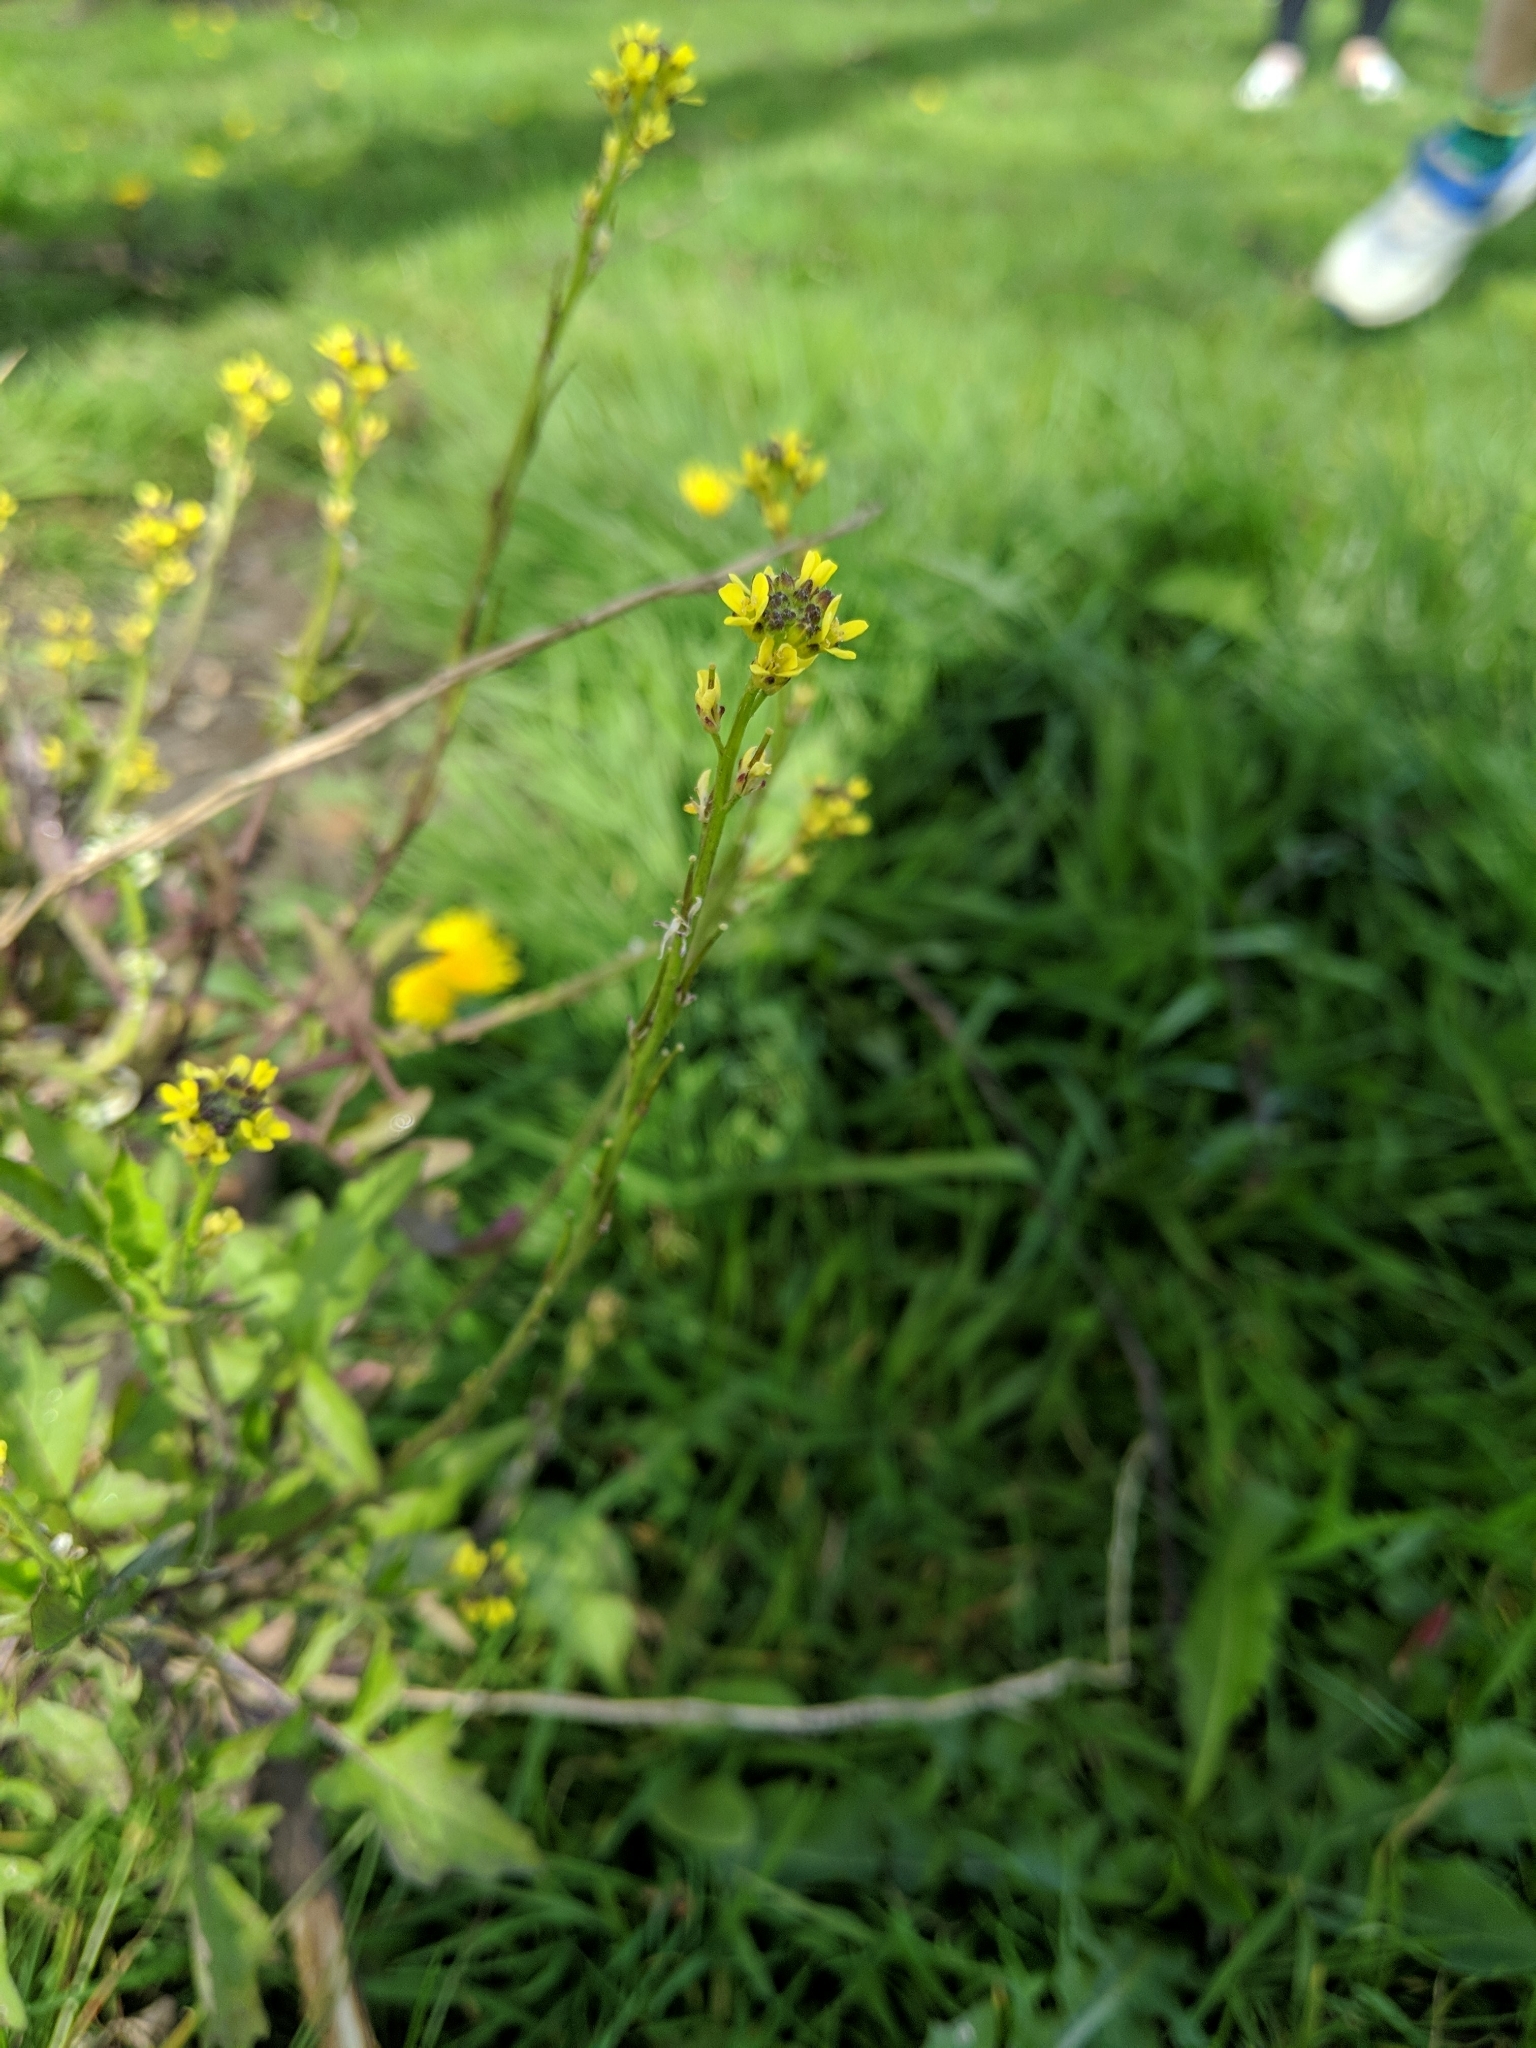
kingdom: Plantae
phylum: Tracheophyta
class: Magnoliopsida
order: Brassicales
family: Brassicaceae
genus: Sisymbrium
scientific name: Sisymbrium officinale
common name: Hedge mustard
